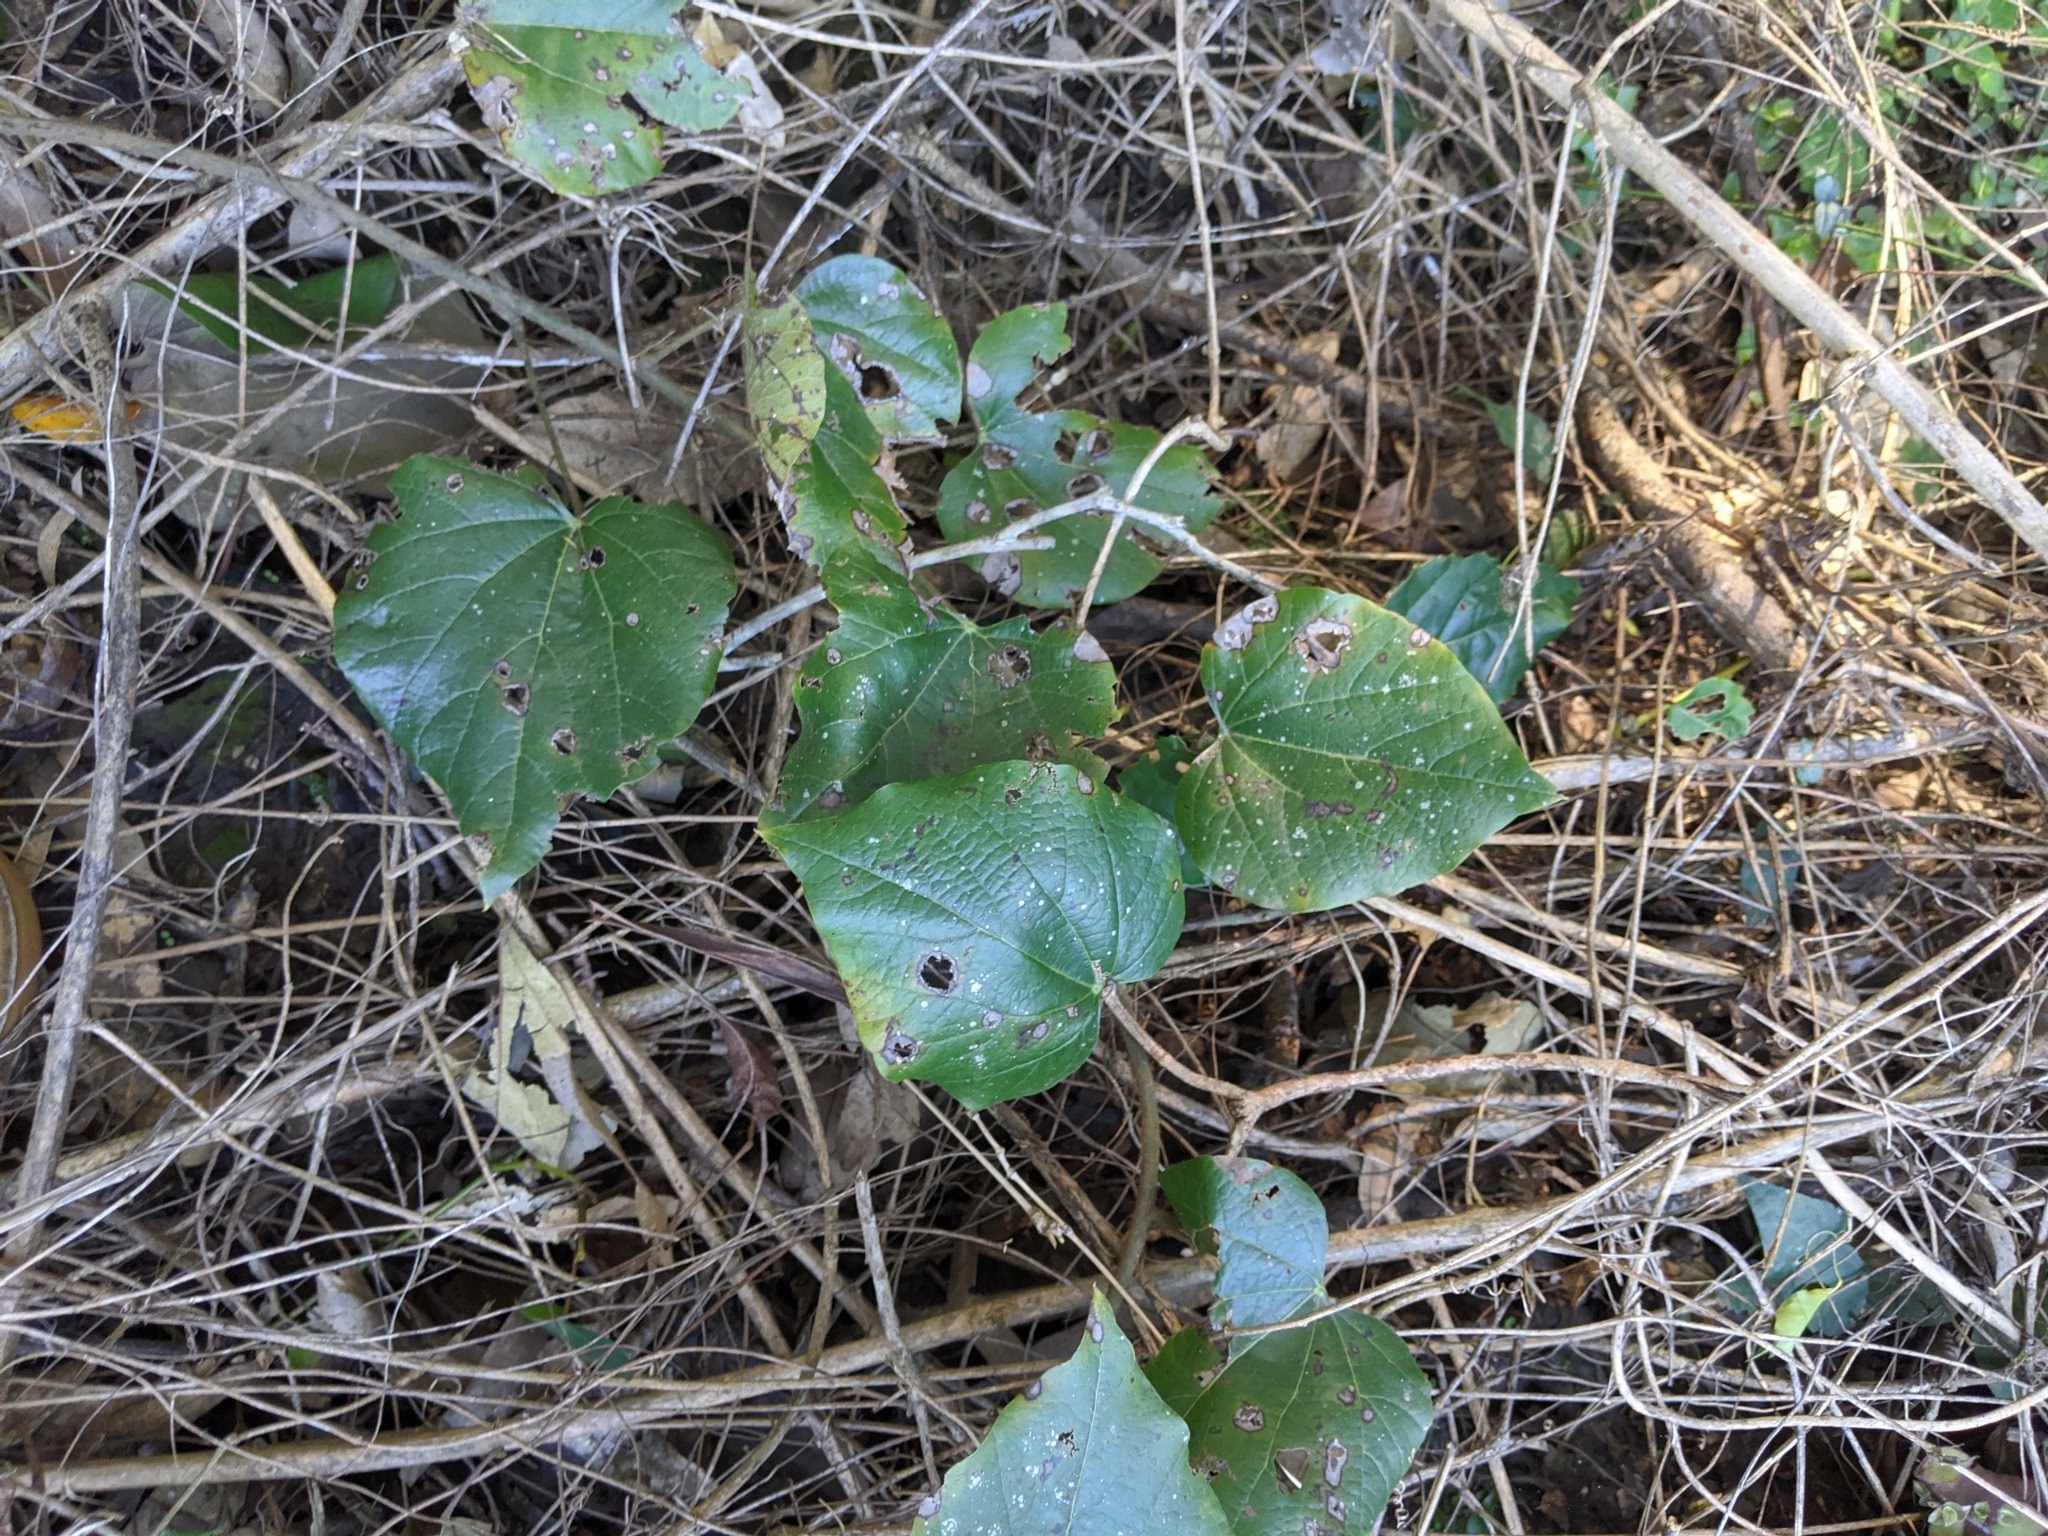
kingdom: Plantae
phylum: Tracheophyta
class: Magnoliopsida
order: Ranunculales
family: Menispermaceae
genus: Legnephora
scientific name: Legnephora moorei
